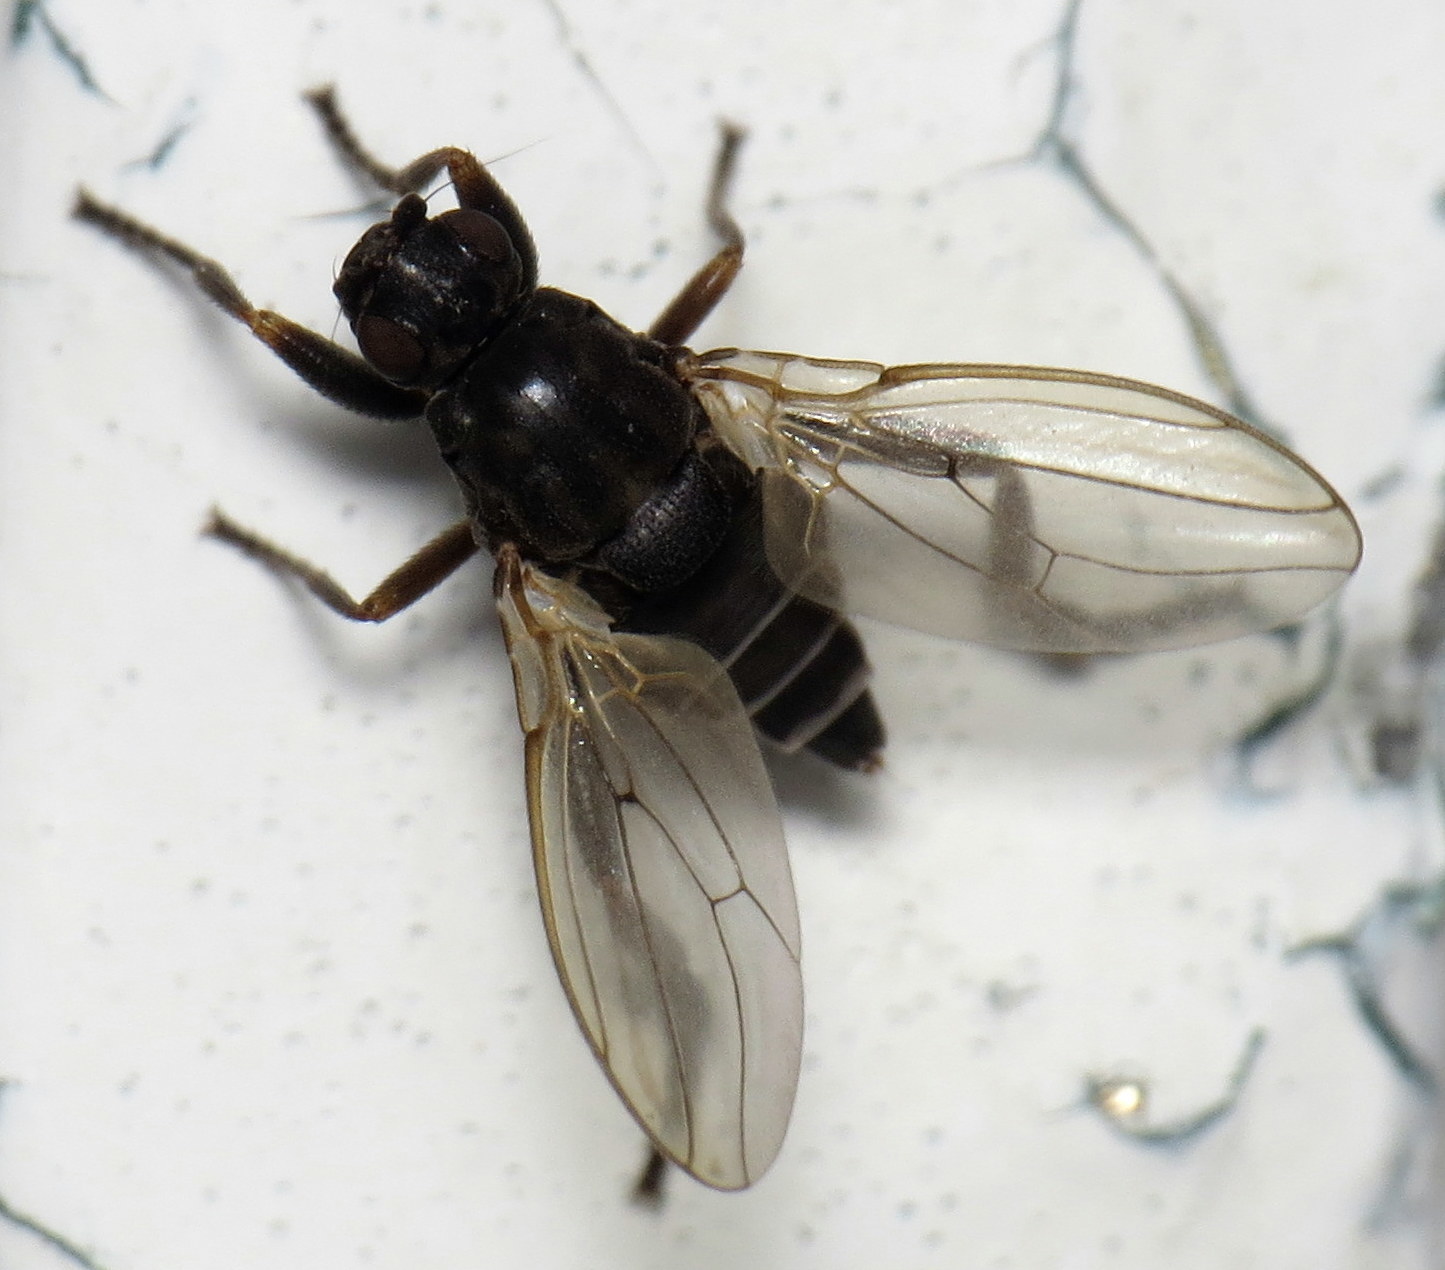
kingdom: Animalia
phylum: Arthropoda
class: Insecta
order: Diptera
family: Sphaeroceridae
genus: Sphaerocera
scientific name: Sphaerocera curvipes
